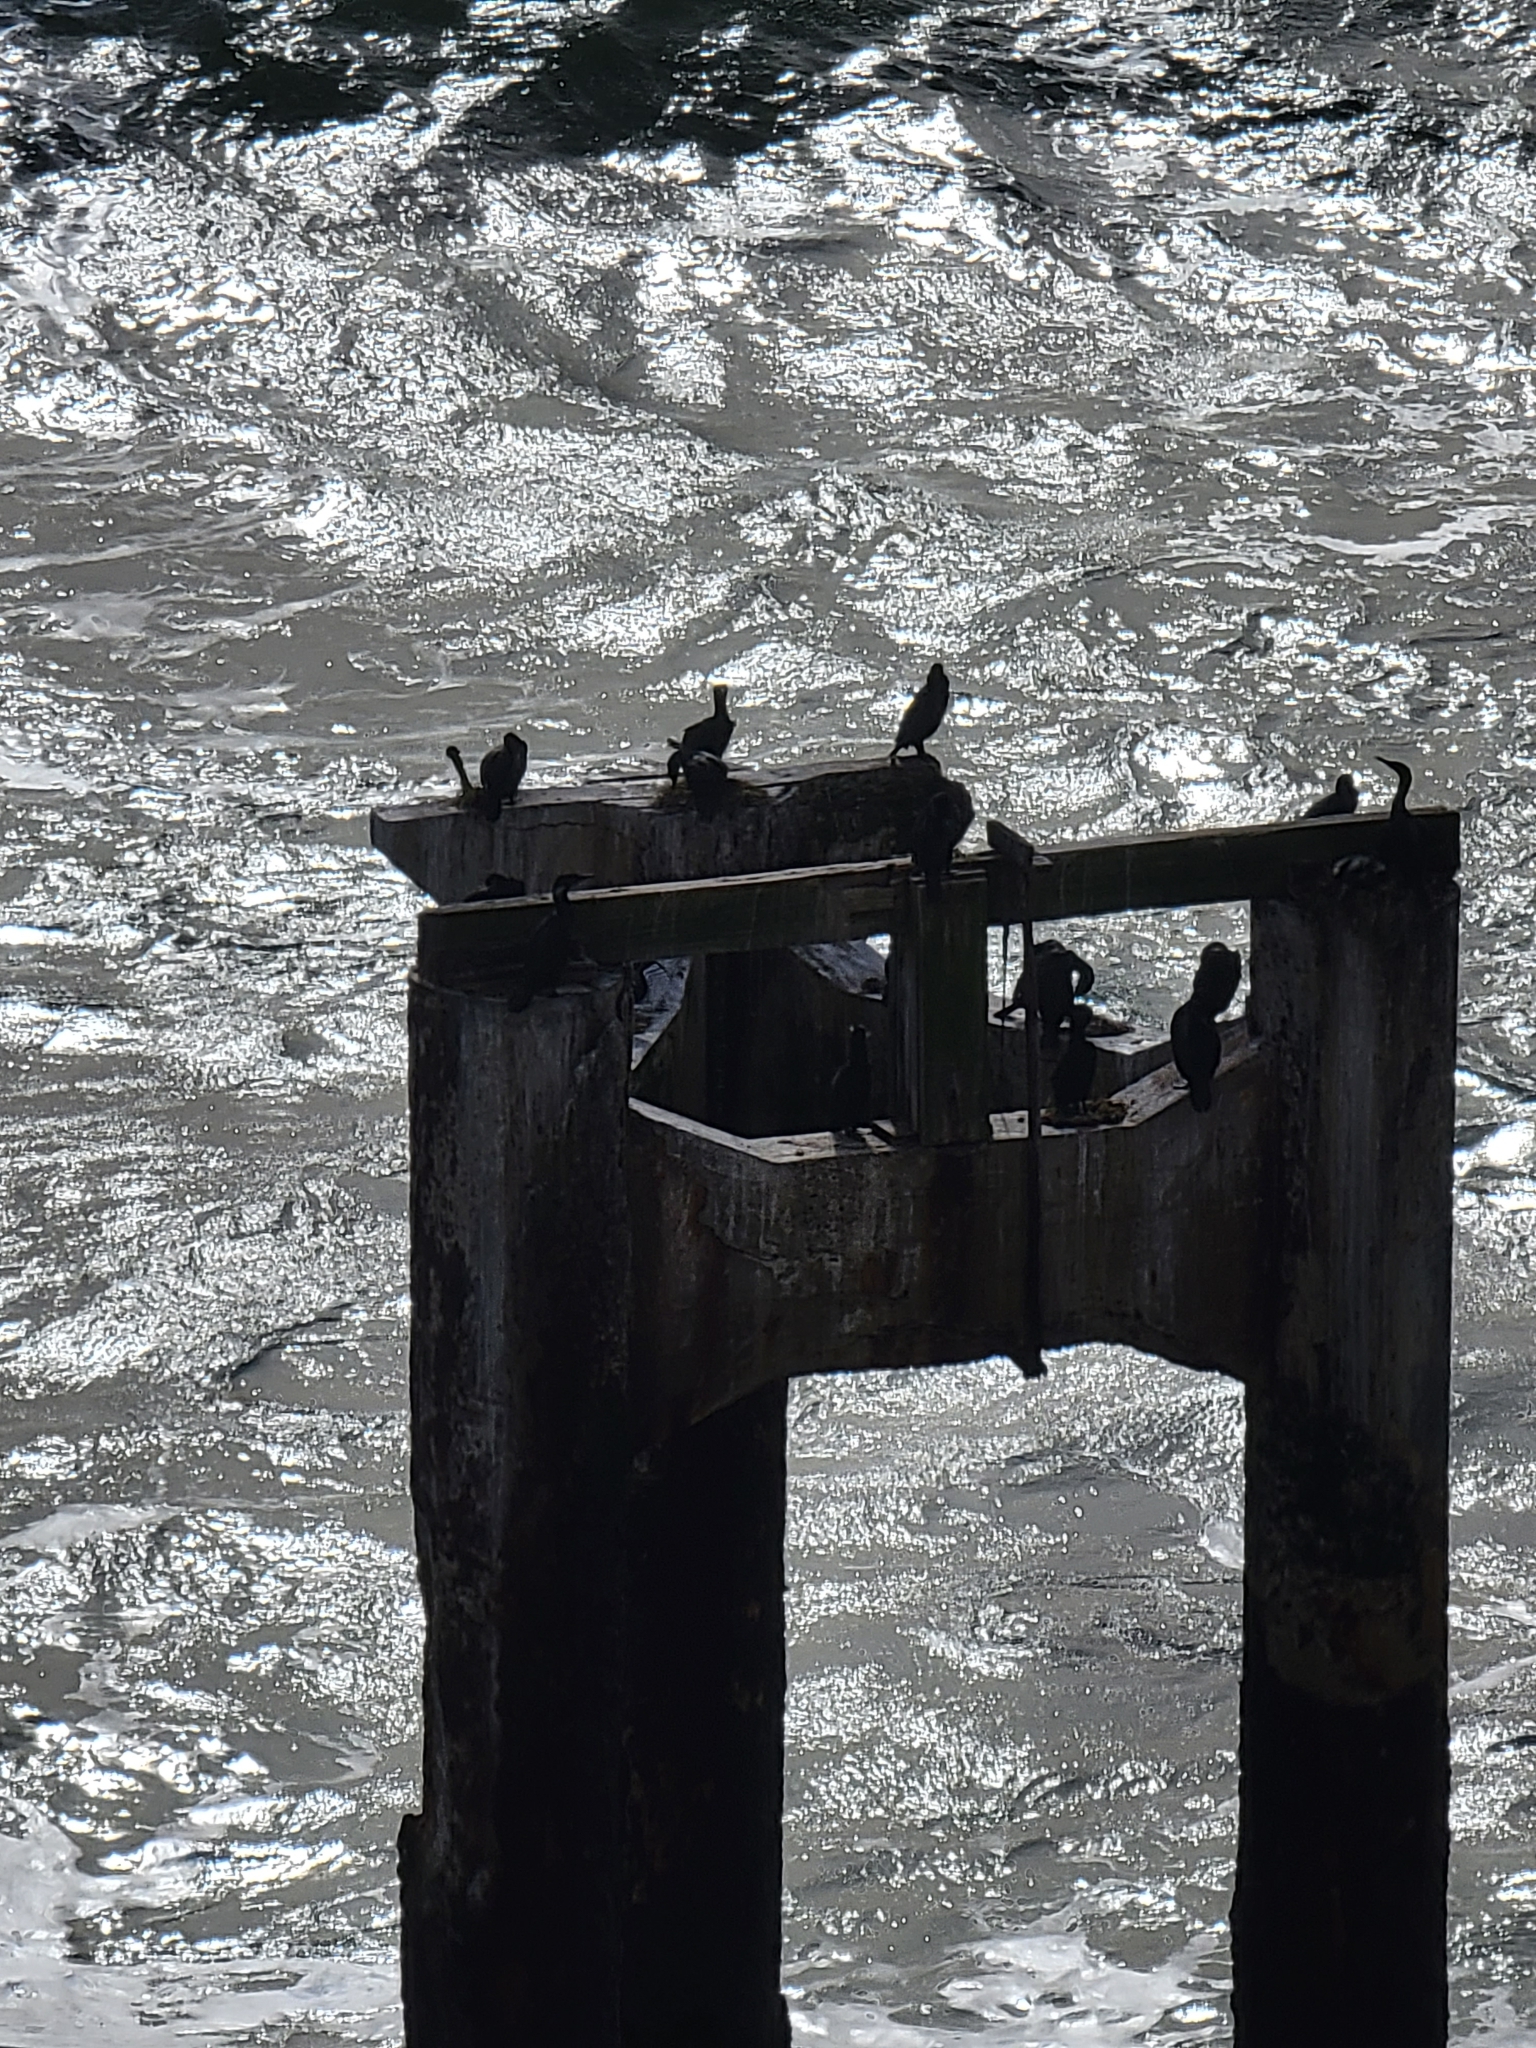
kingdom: Animalia
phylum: Chordata
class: Aves
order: Suliformes
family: Phalacrocoracidae
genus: Urile
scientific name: Urile penicillatus
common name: Brandt's cormorant
